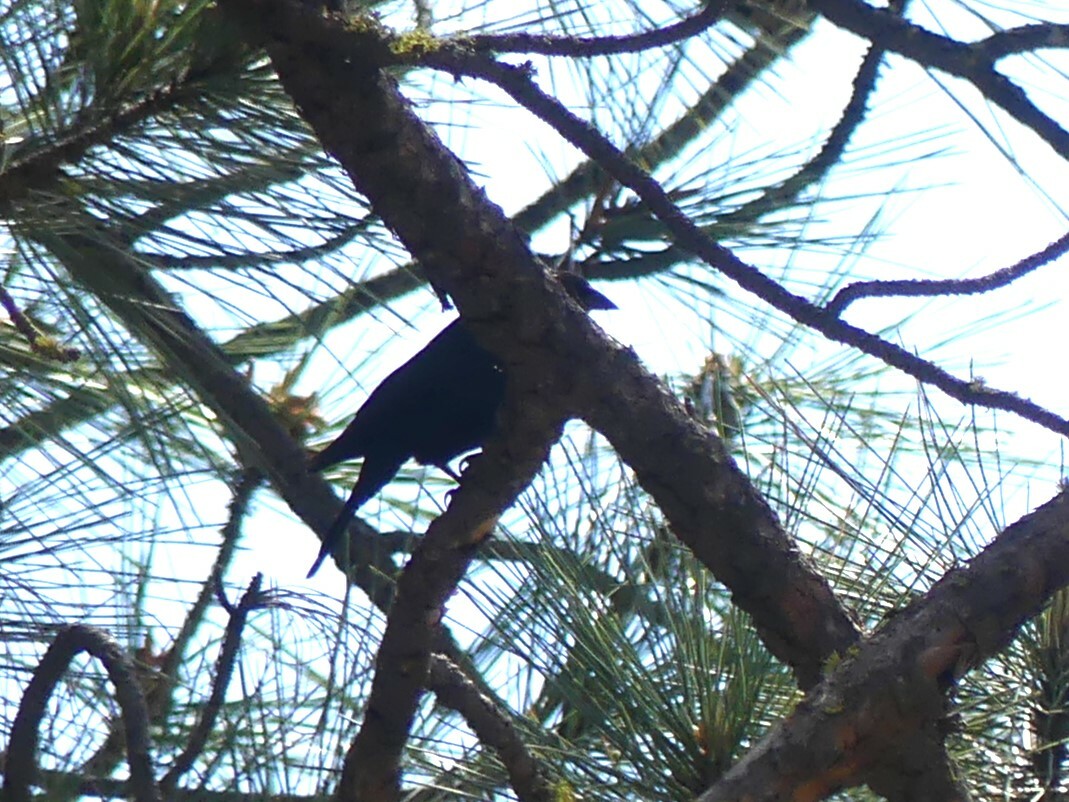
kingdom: Animalia
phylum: Chordata
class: Aves
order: Passeriformes
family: Icteridae
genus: Molothrus
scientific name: Molothrus ater
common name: Brown-headed cowbird
